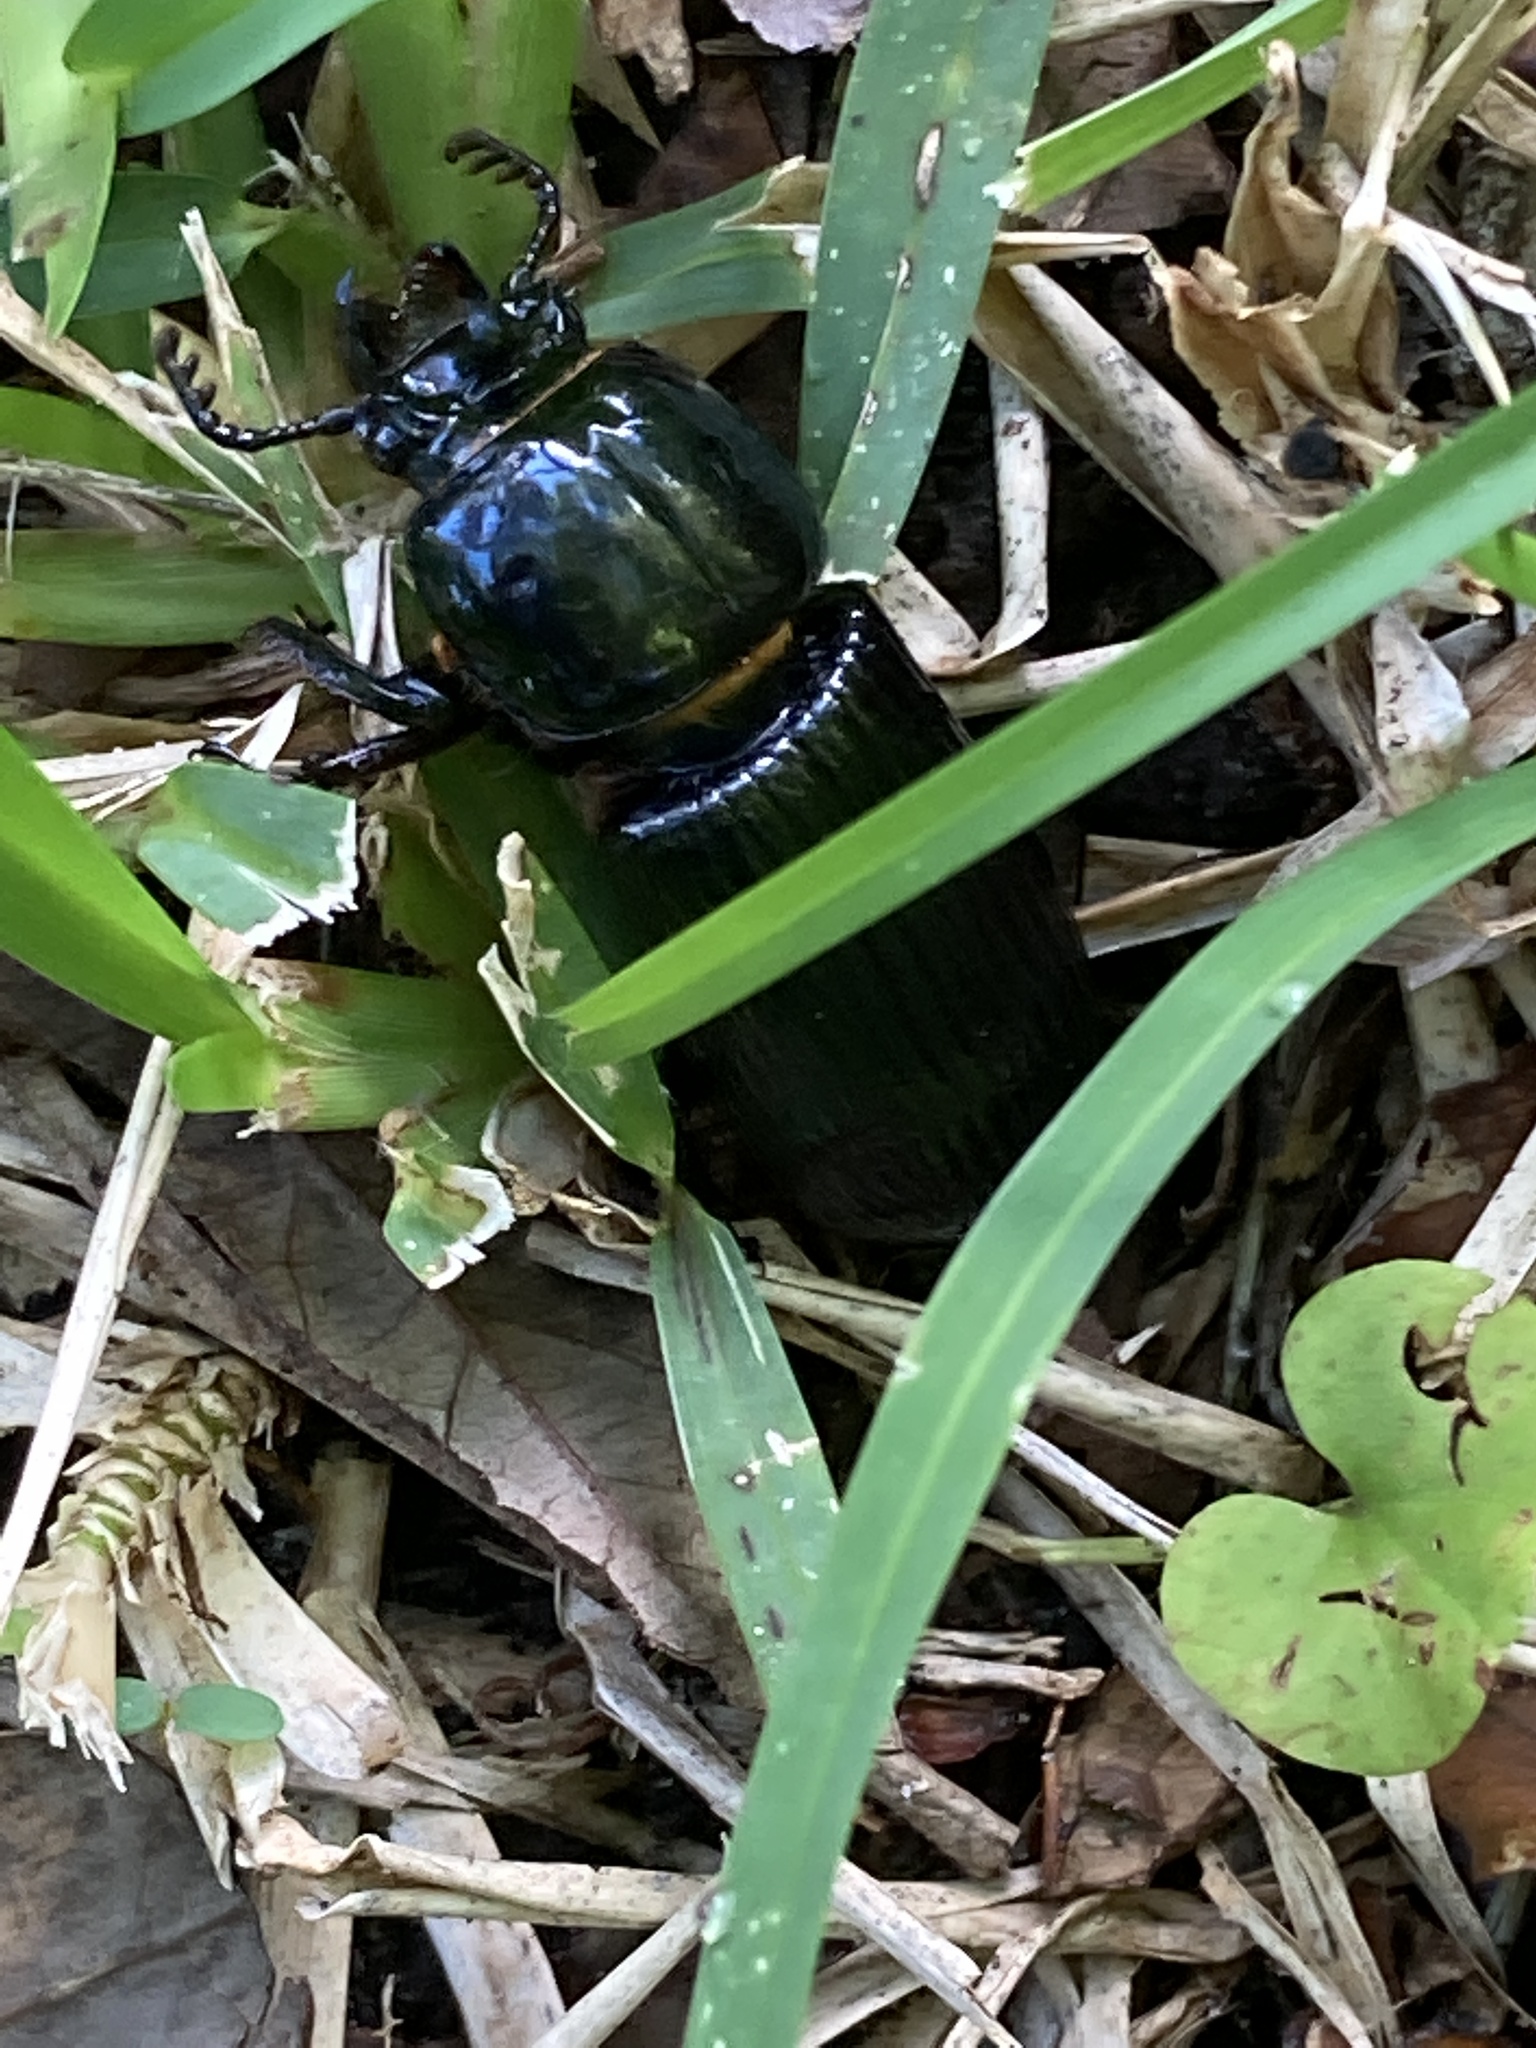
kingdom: Animalia
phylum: Arthropoda
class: Insecta
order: Coleoptera
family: Passalidae
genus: Odontotaenius
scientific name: Odontotaenius disjunctus
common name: Patent leather beetle
